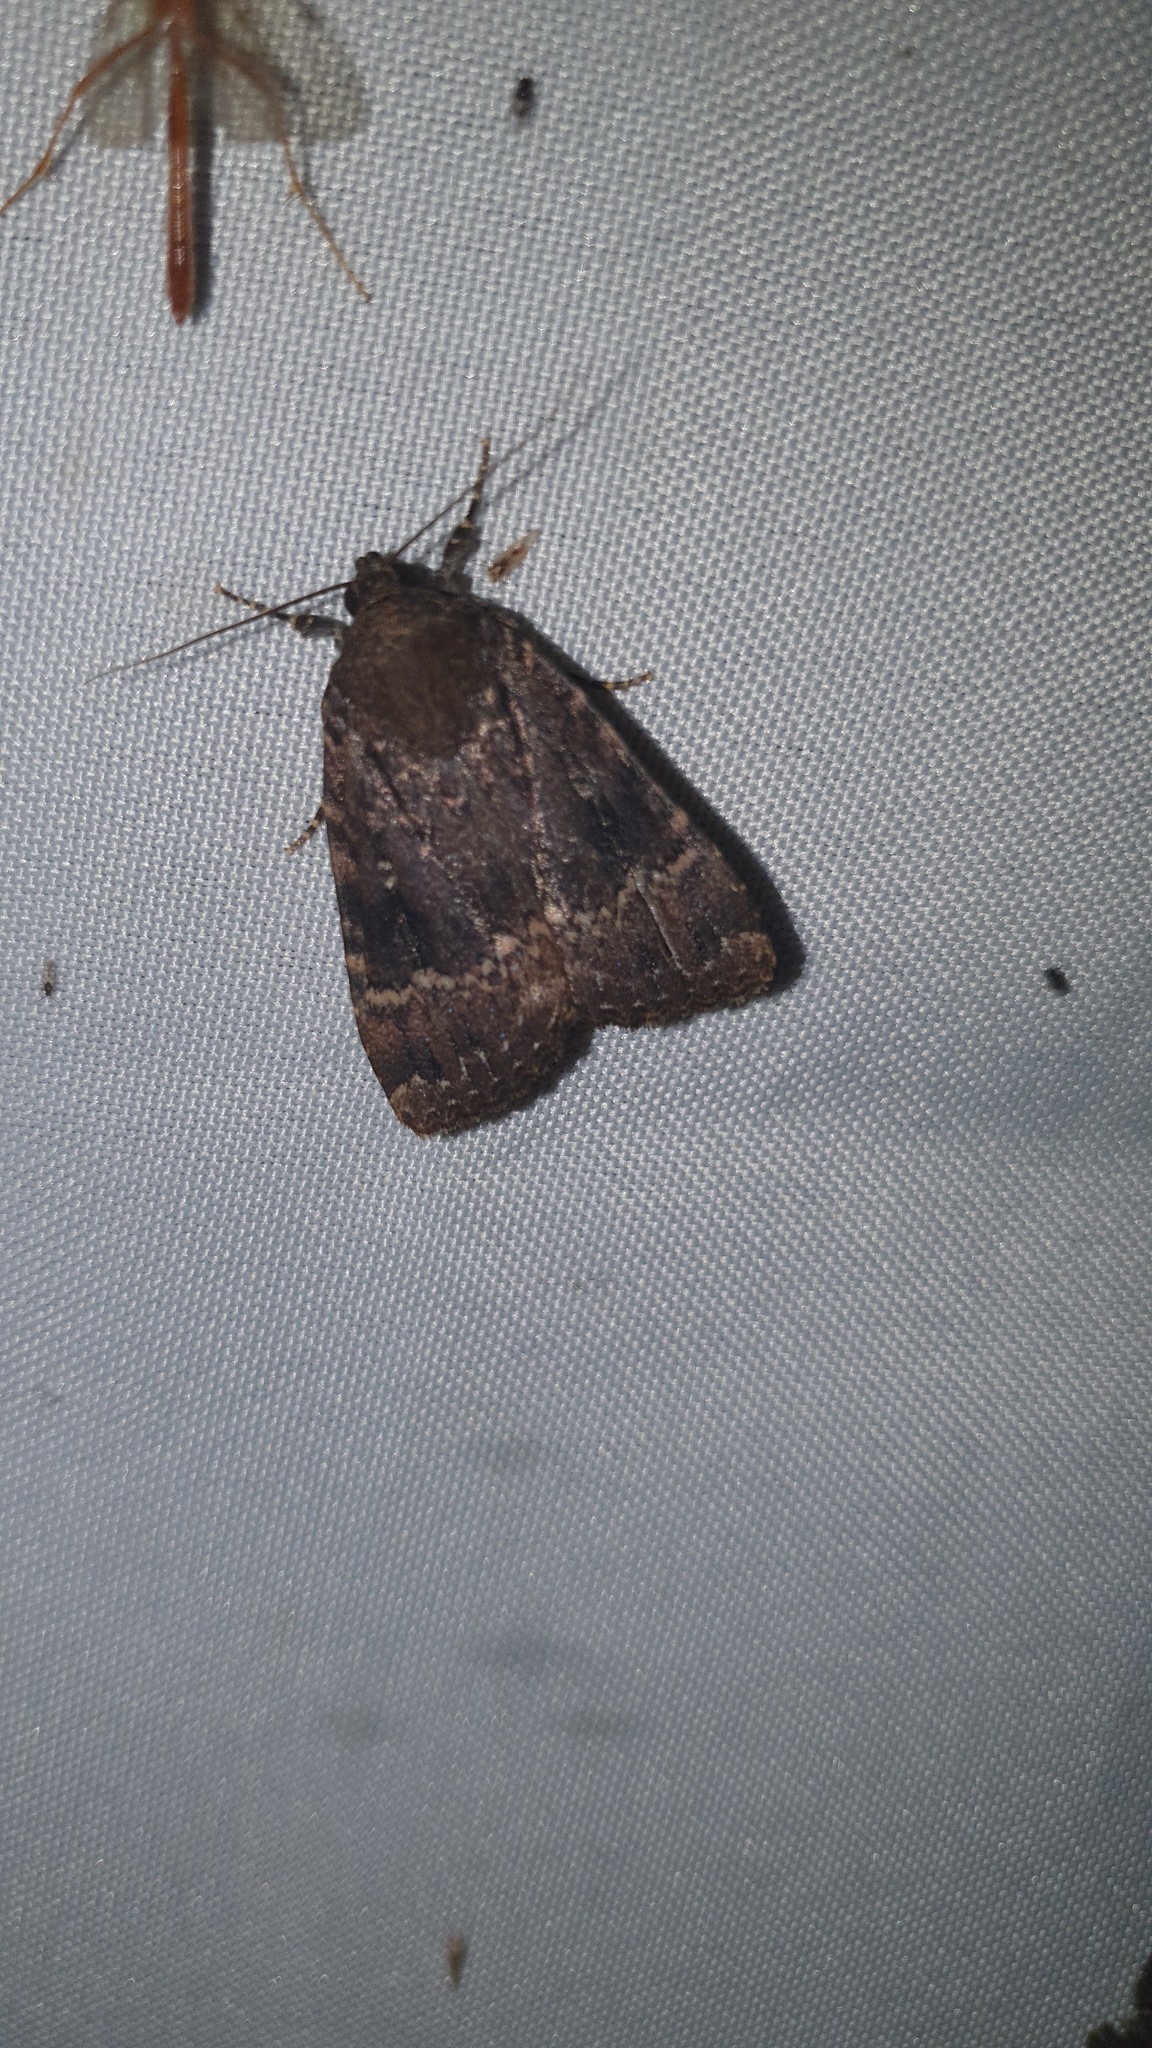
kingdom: Animalia
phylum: Arthropoda
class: Insecta
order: Lepidoptera
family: Noctuidae
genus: Amphipyra
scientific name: Amphipyra pyramidea
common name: Copper underwing
